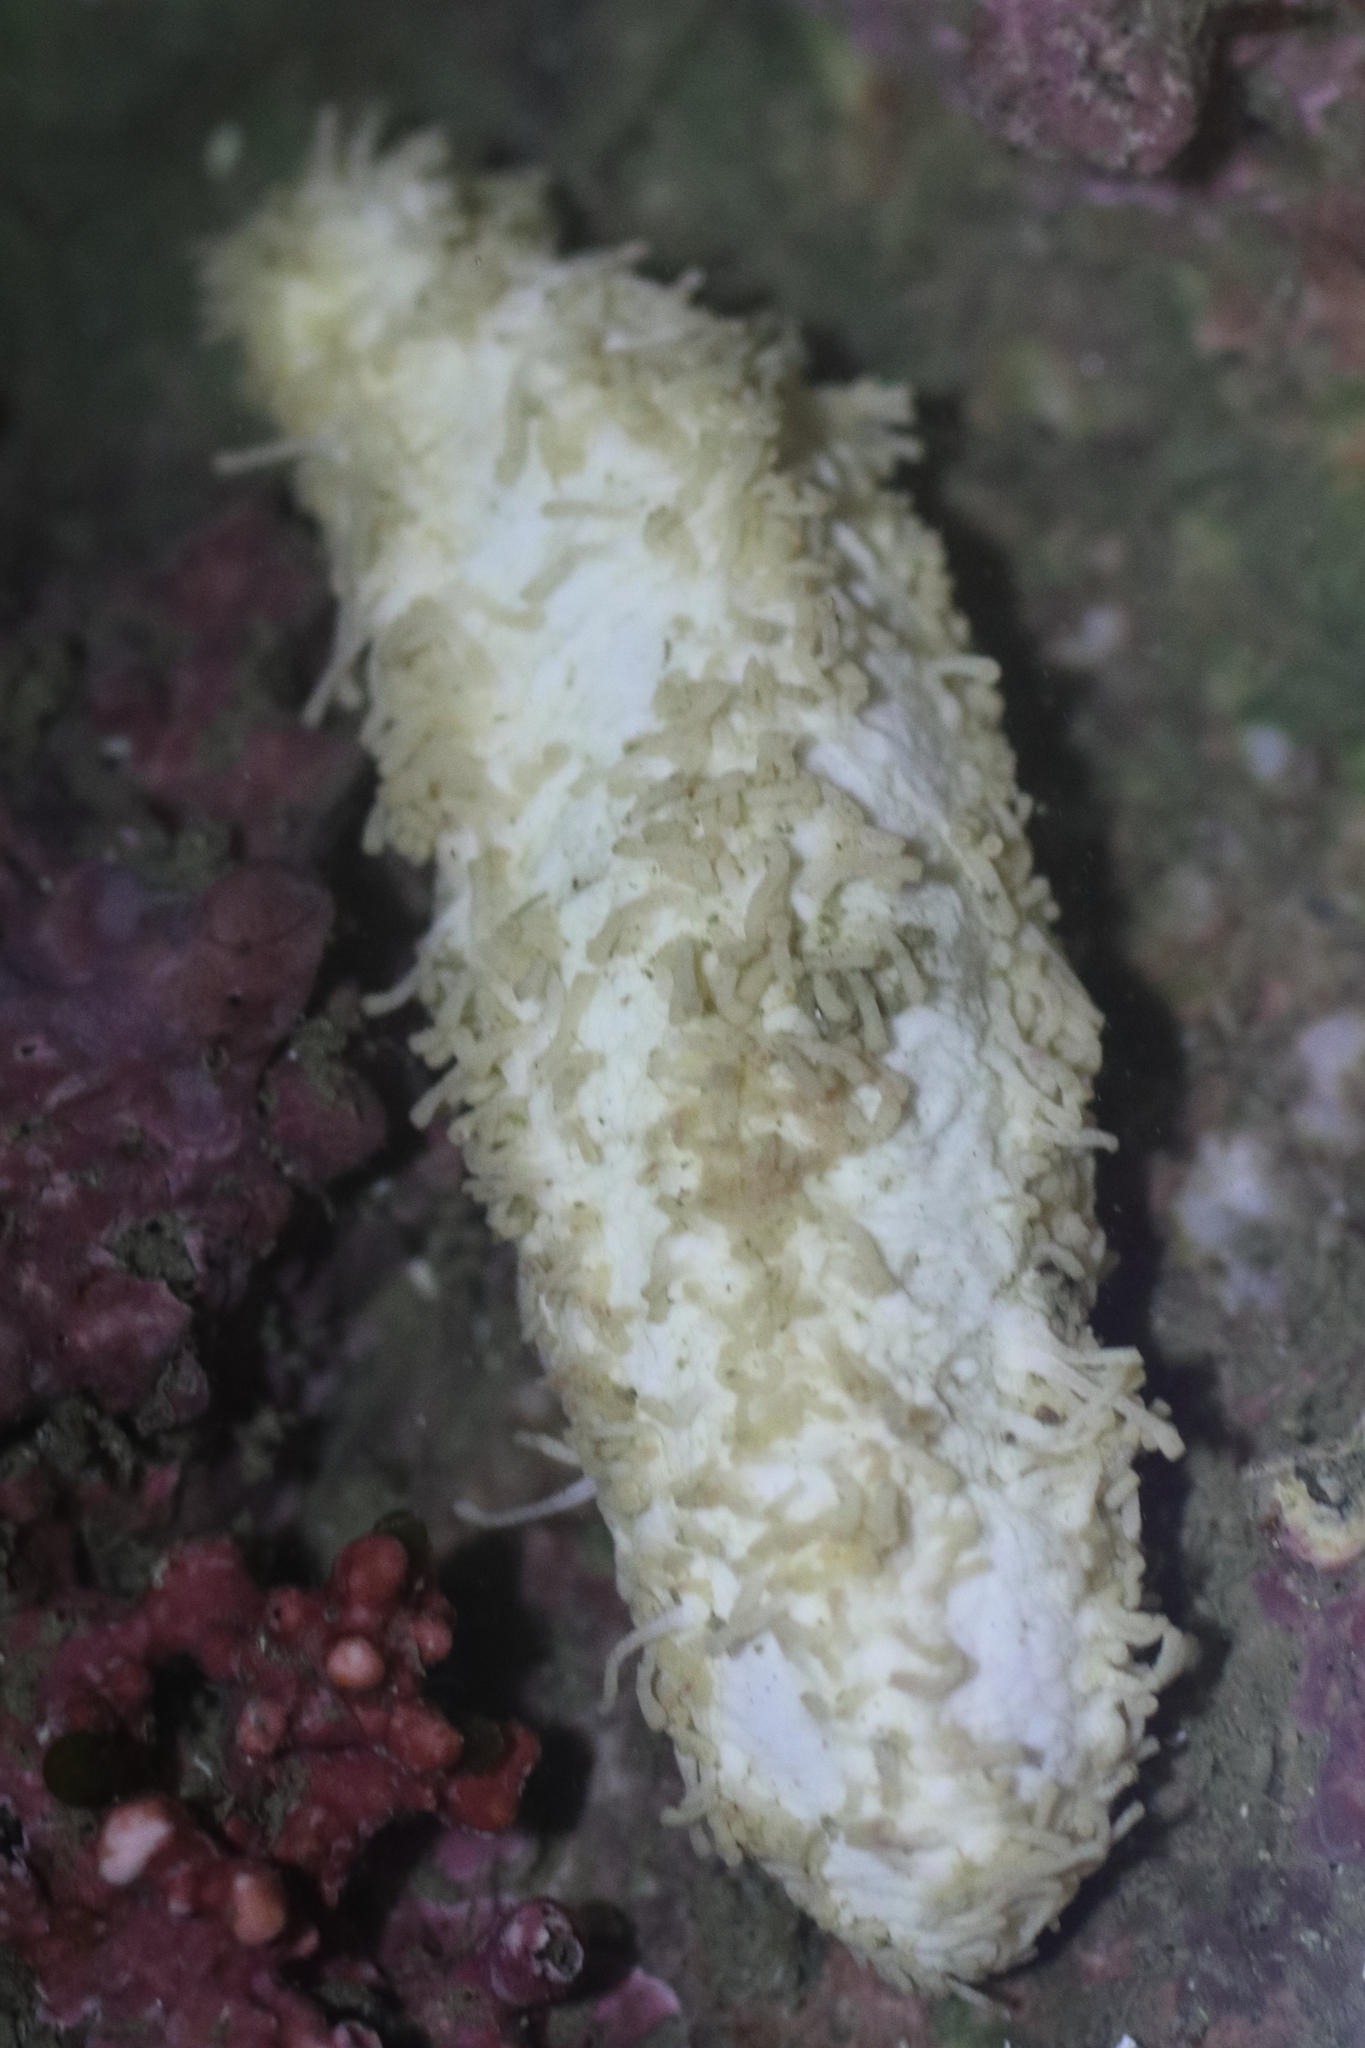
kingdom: Animalia
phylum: Echinodermata
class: Holothuroidea
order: Dendrochirotida
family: Sclerodactylidae
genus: Eupentacta
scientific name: Eupentacta pseudoquinquesemita
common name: Pseudo-white sea cucumber
